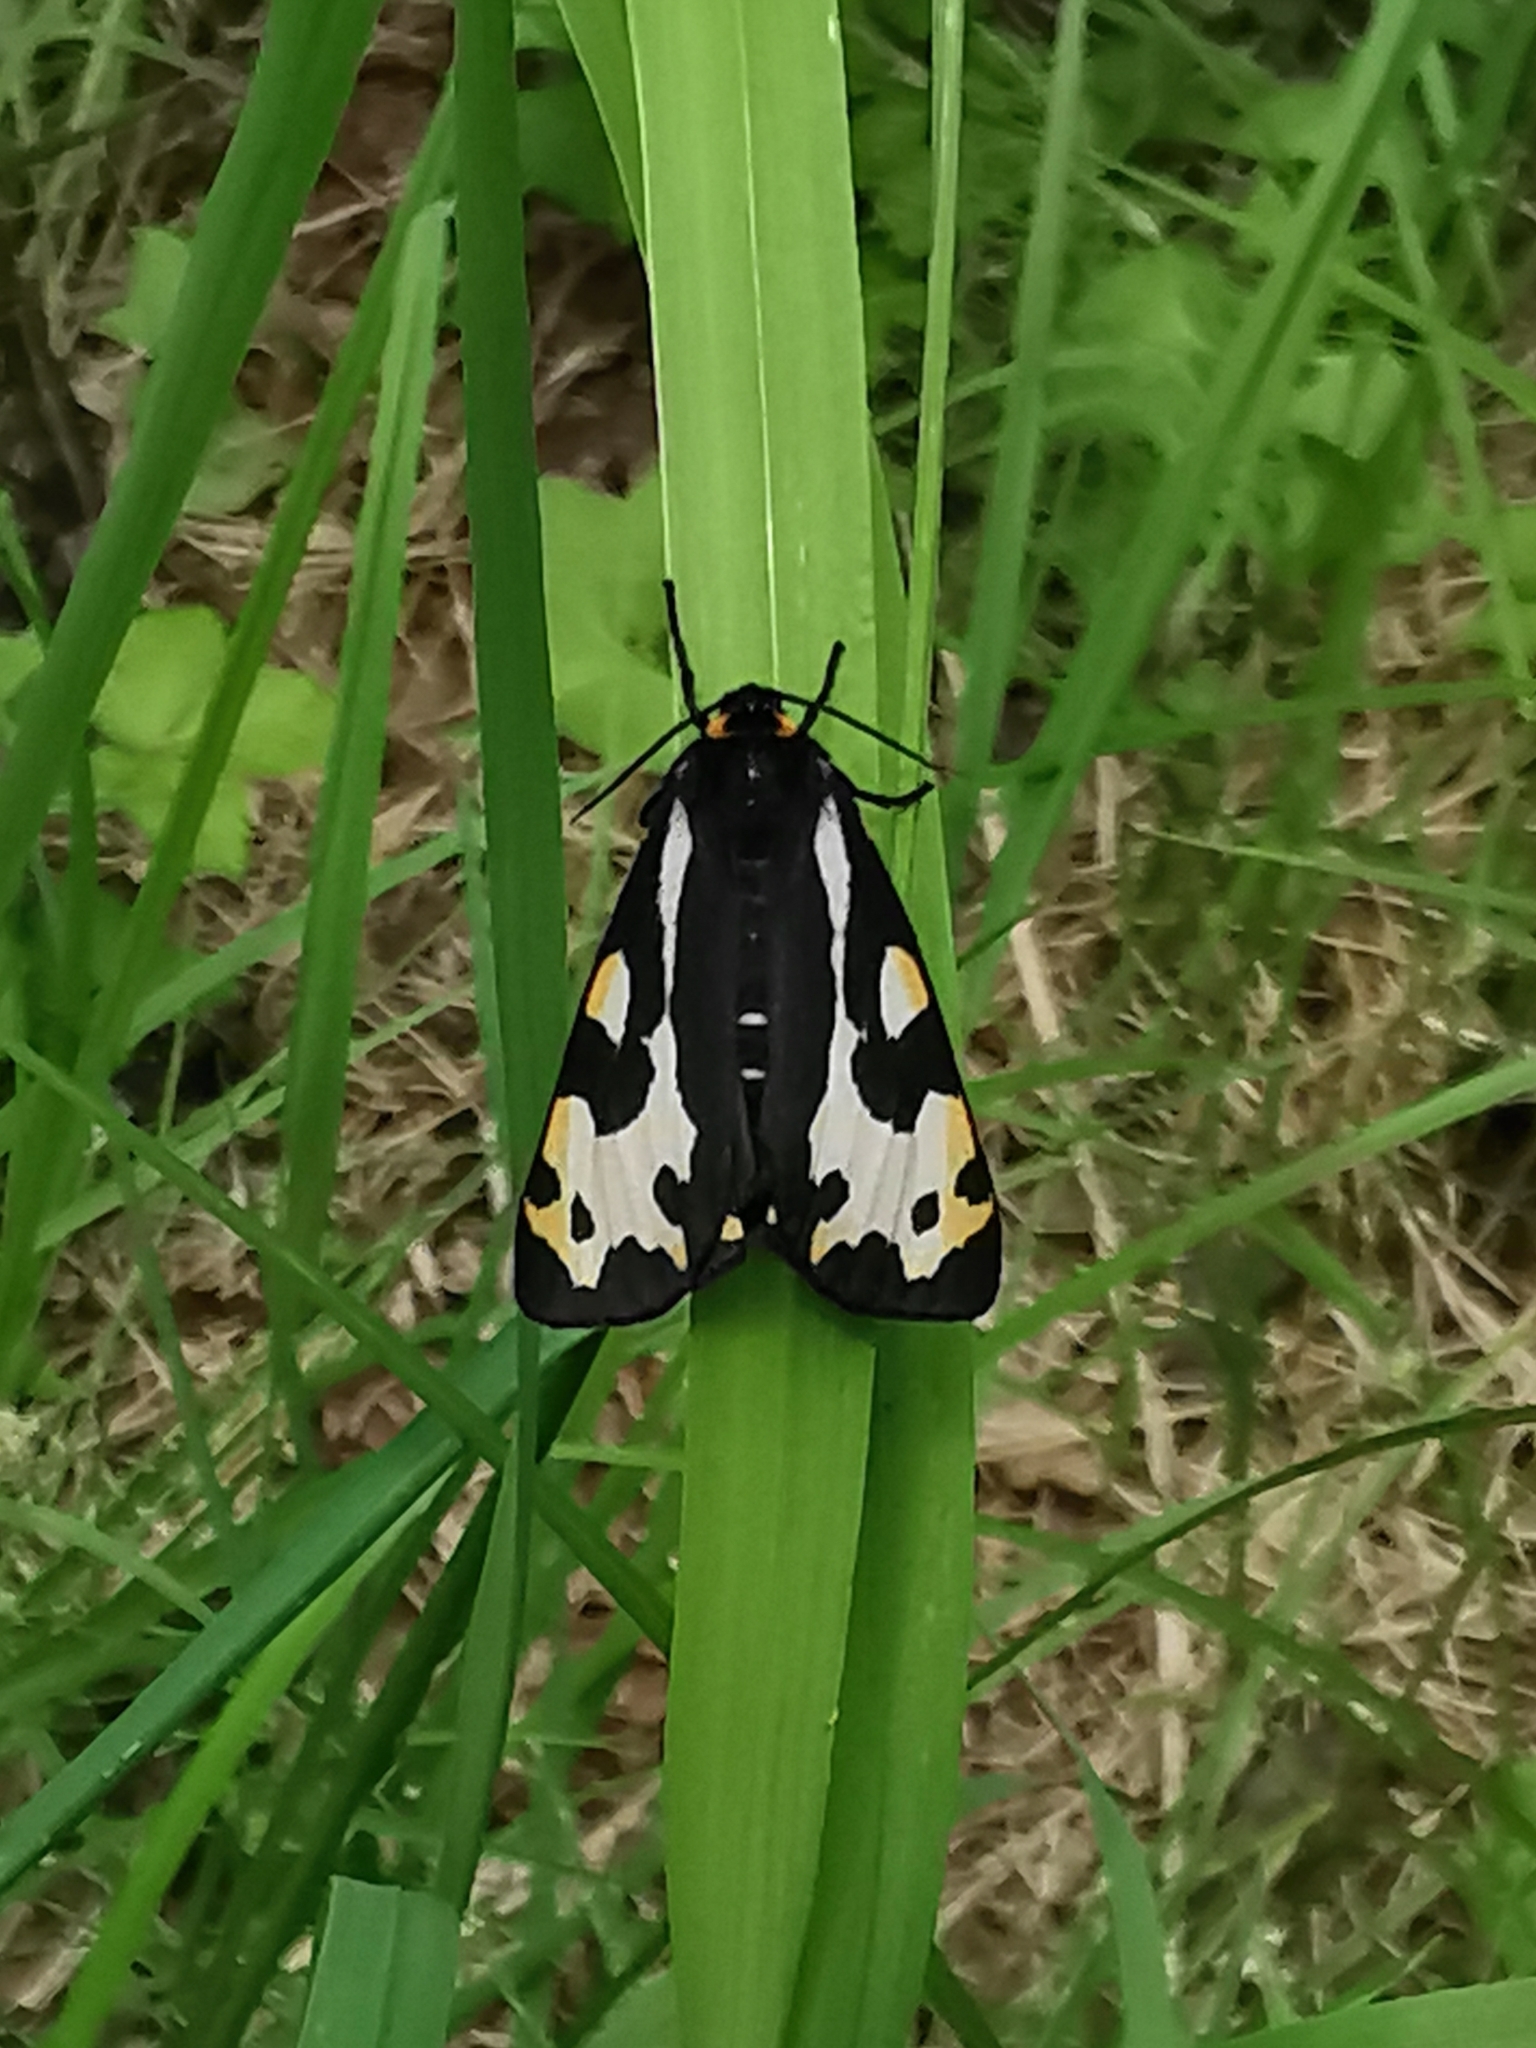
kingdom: Animalia
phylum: Arthropoda
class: Insecta
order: Lepidoptera
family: Erebidae
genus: Parasemia
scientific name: Parasemia plantaginis
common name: Wood tiger
